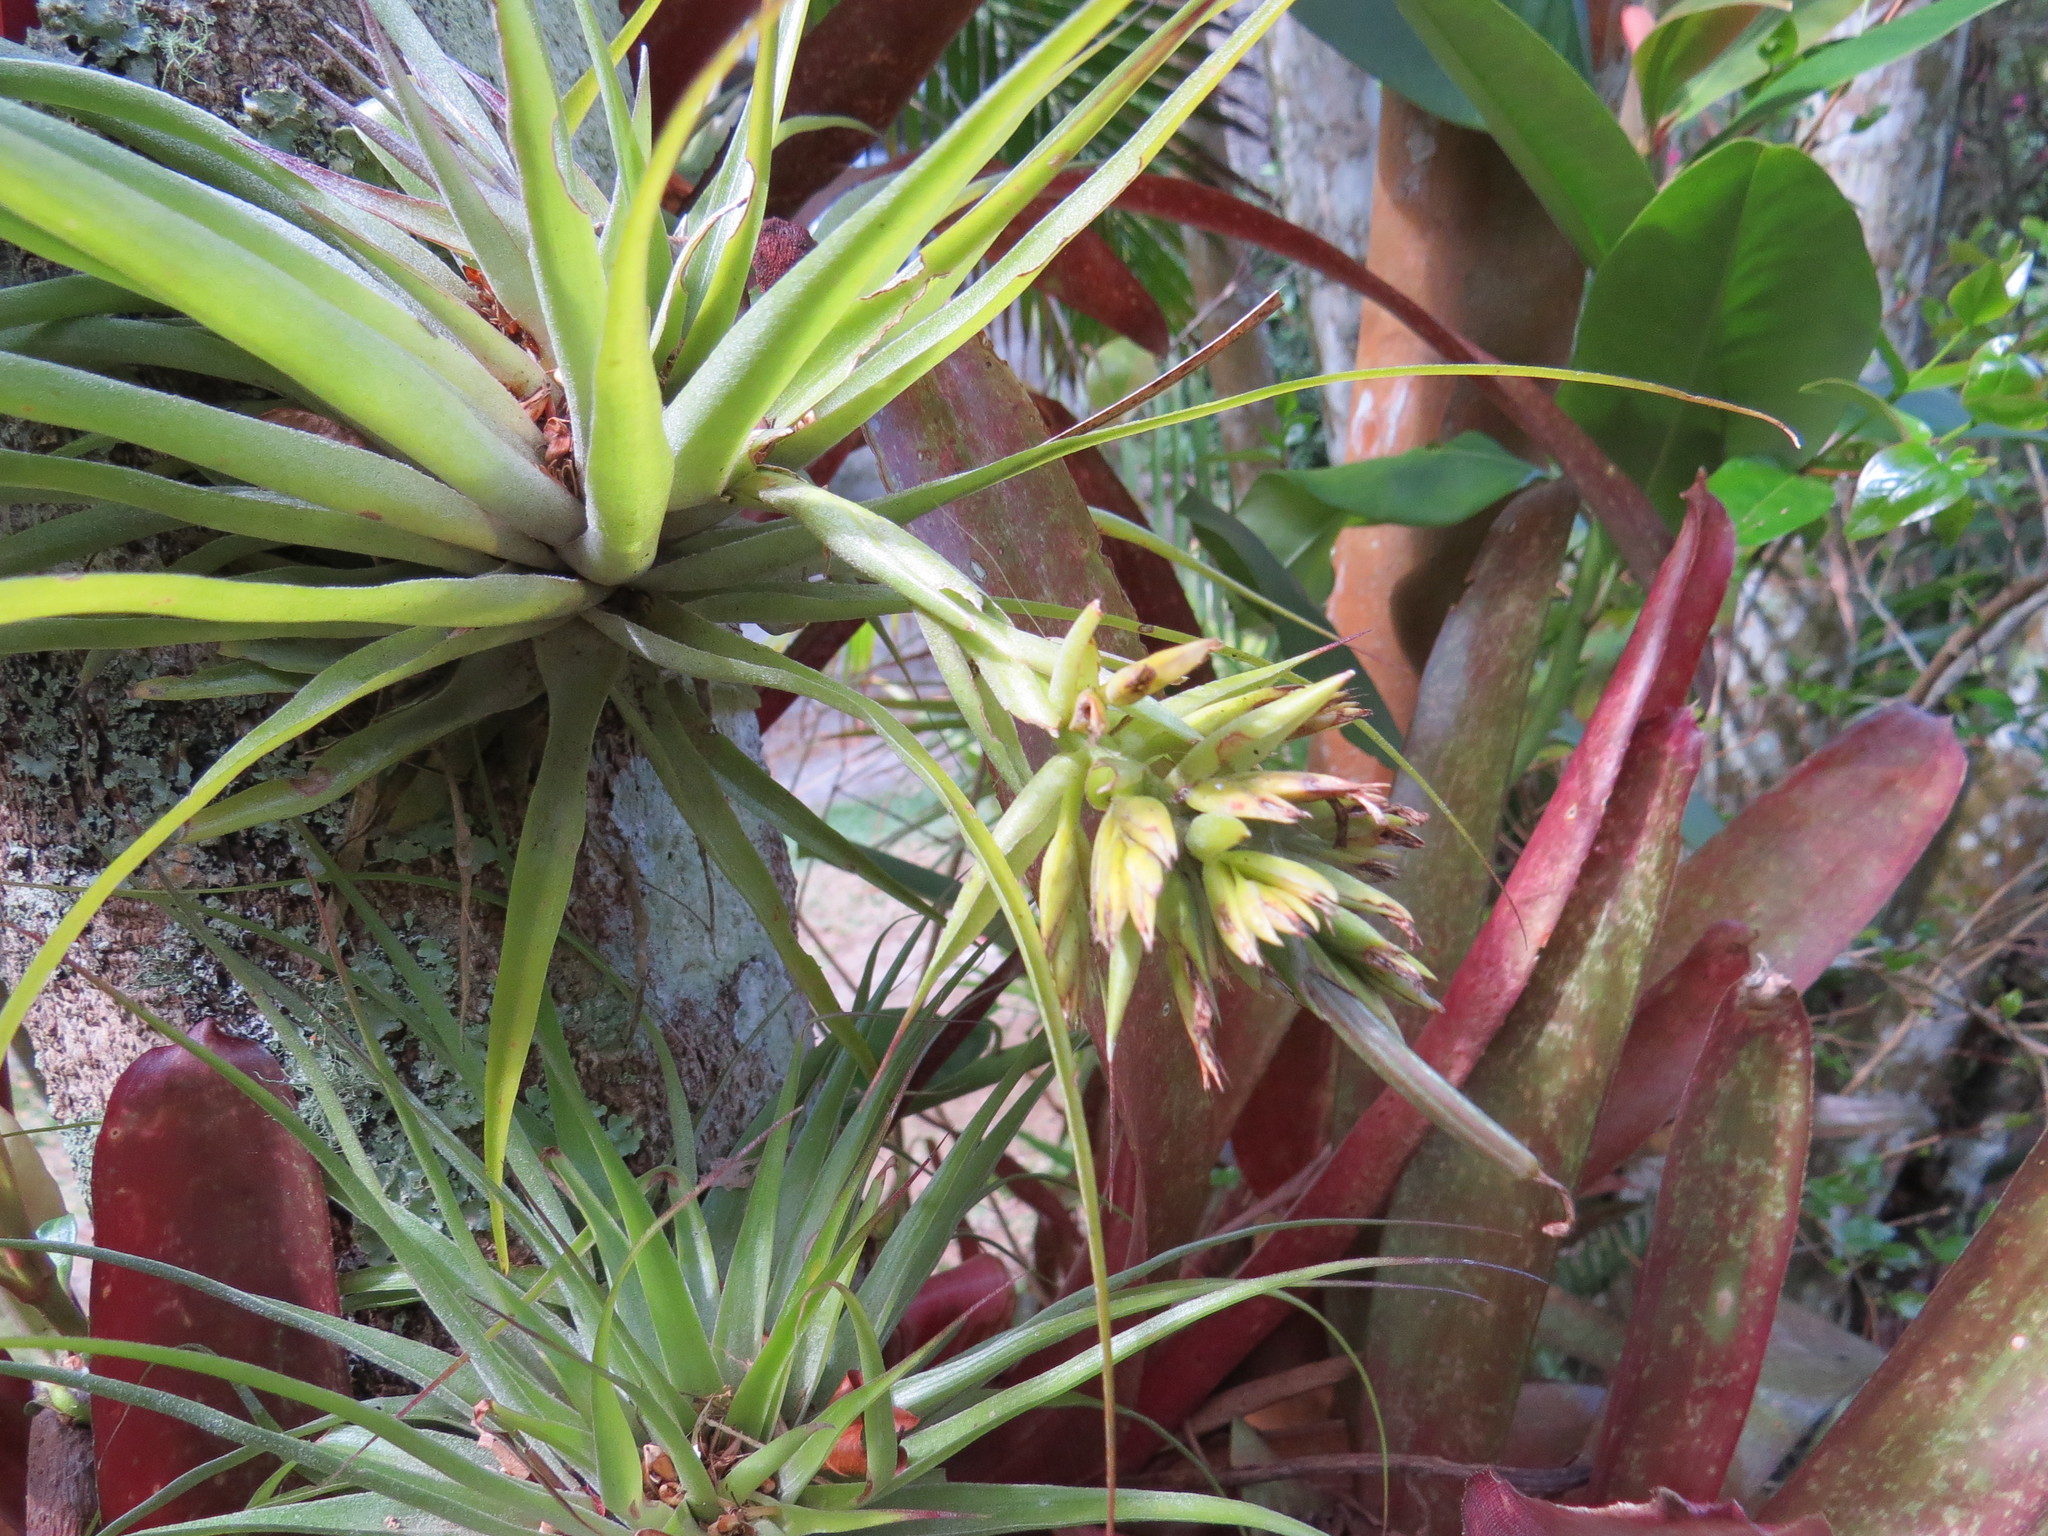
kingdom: Plantae
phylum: Tracheophyta
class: Liliopsida
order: Poales
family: Bromeliaceae
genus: Tillandsia
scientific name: Tillandsia geminiflora
